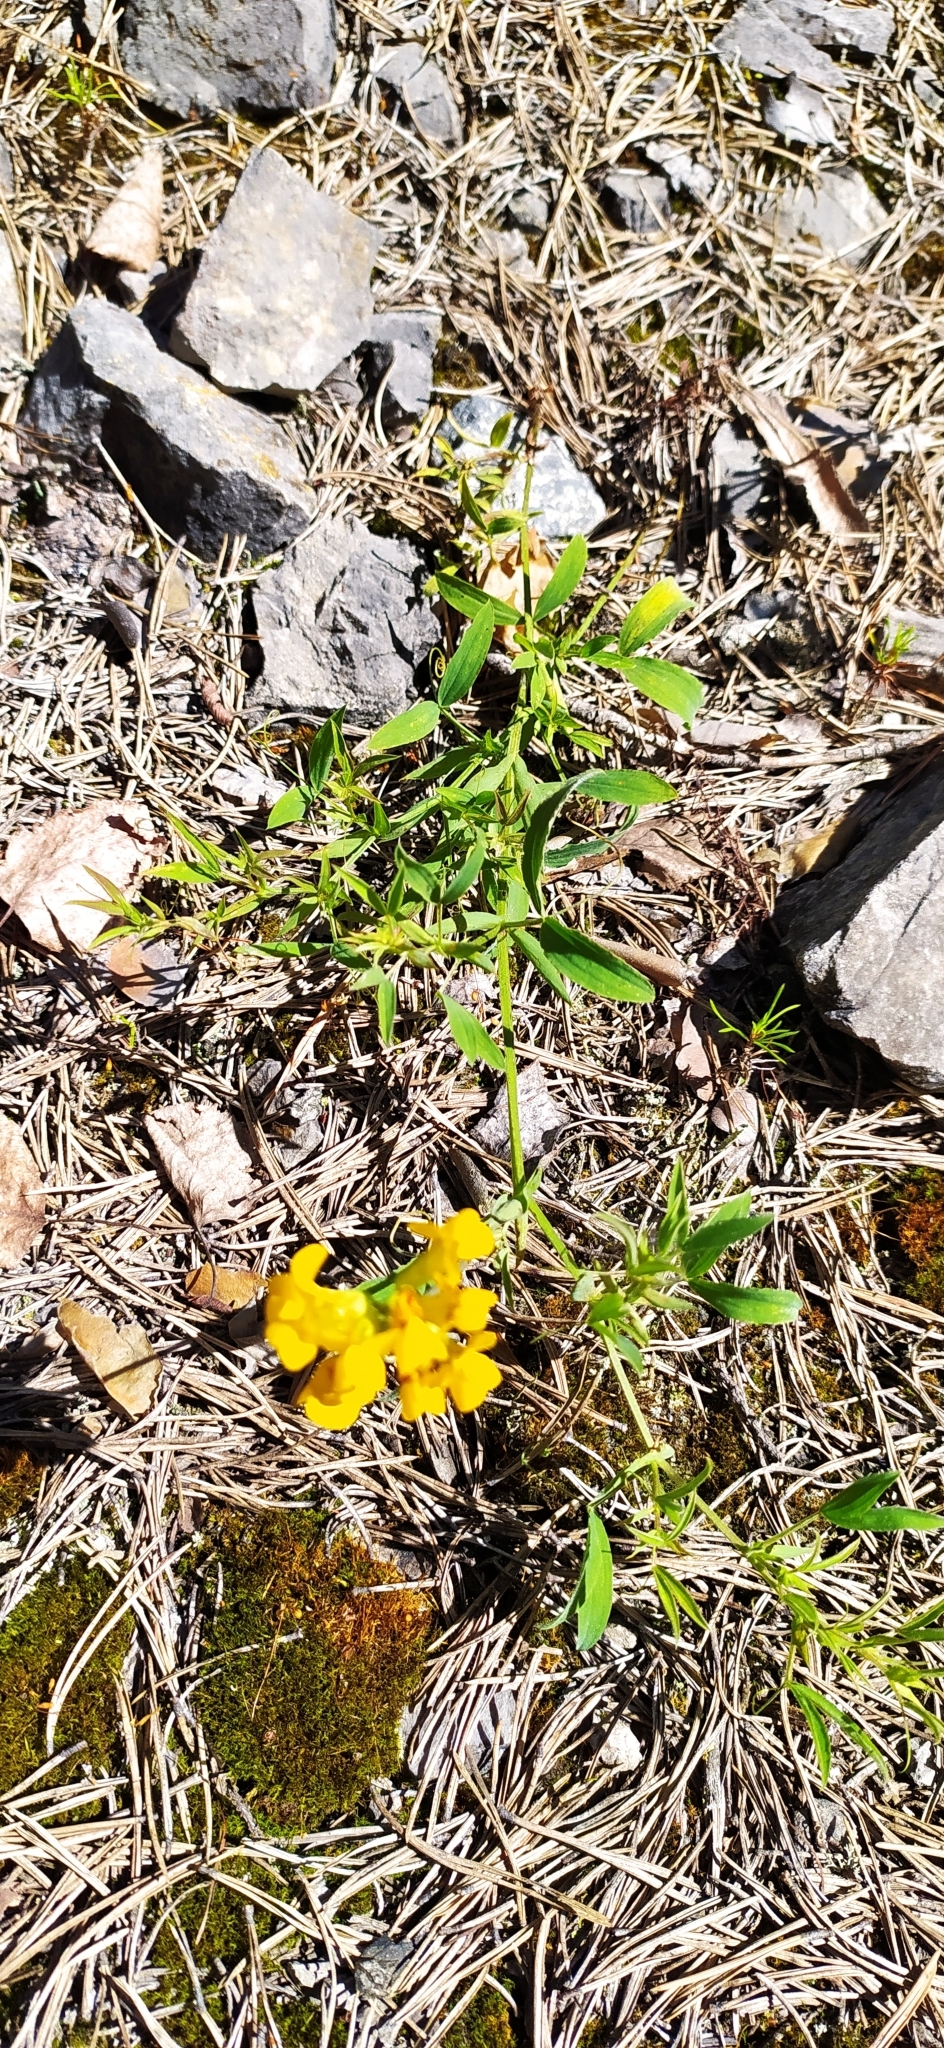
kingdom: Plantae
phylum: Tracheophyta
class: Magnoliopsida
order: Fabales
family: Fabaceae
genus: Lathyrus
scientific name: Lathyrus pratensis
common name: Meadow vetchling
